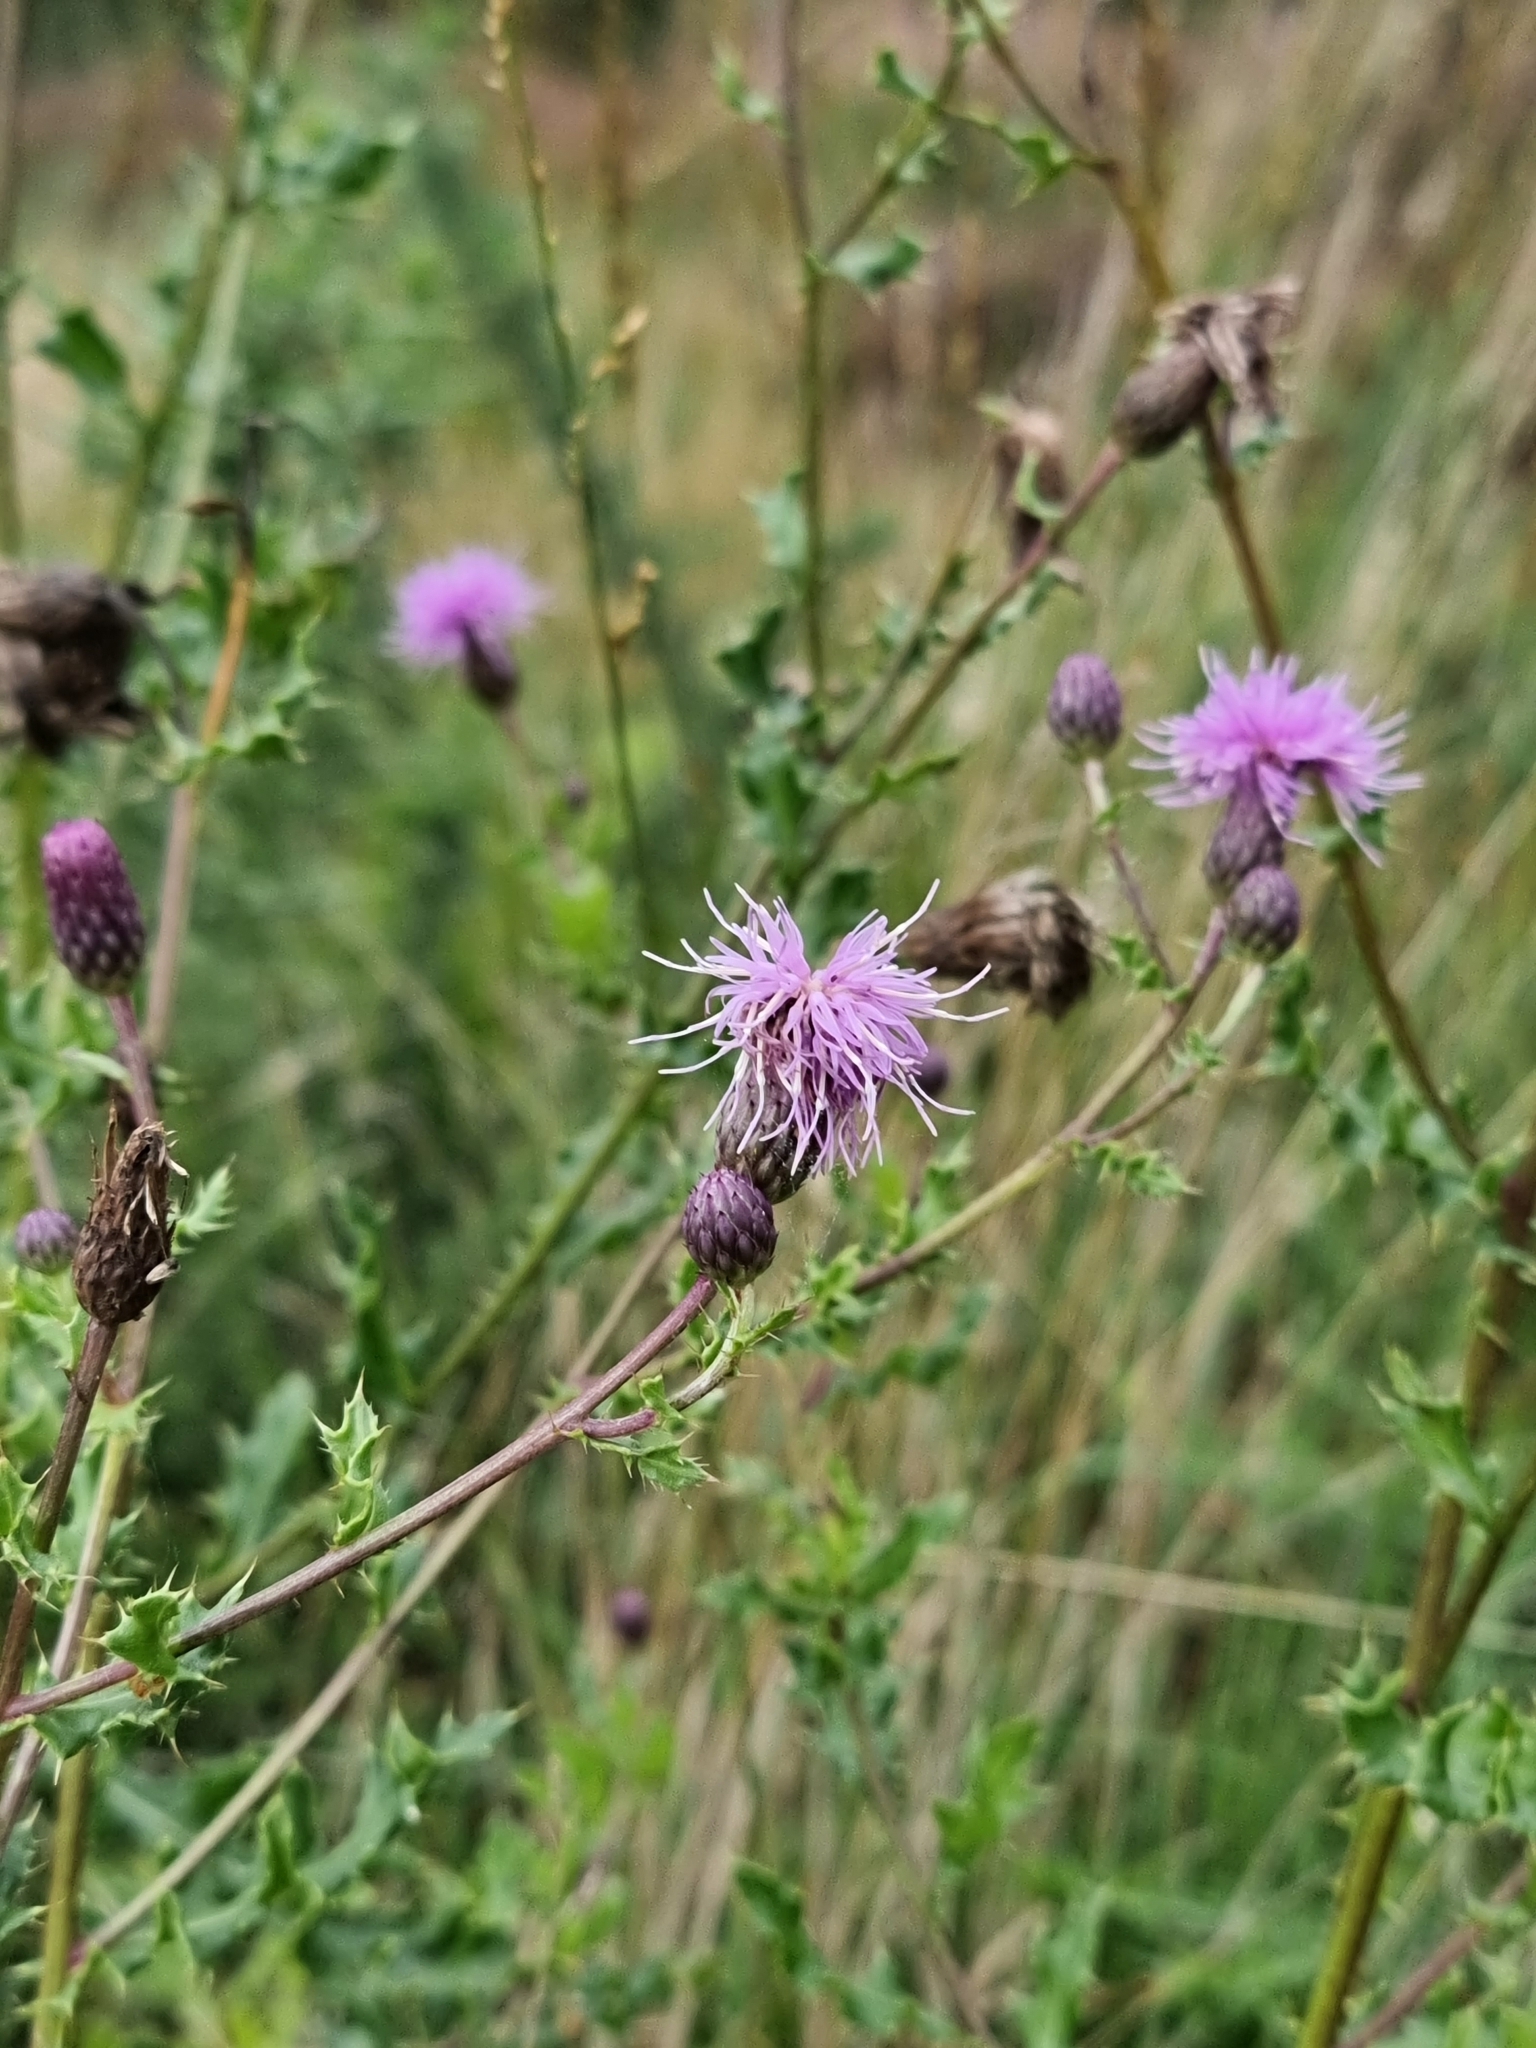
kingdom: Plantae
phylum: Tracheophyta
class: Magnoliopsida
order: Asterales
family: Asteraceae
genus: Cirsium
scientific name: Cirsium arvense
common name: Creeping thistle
